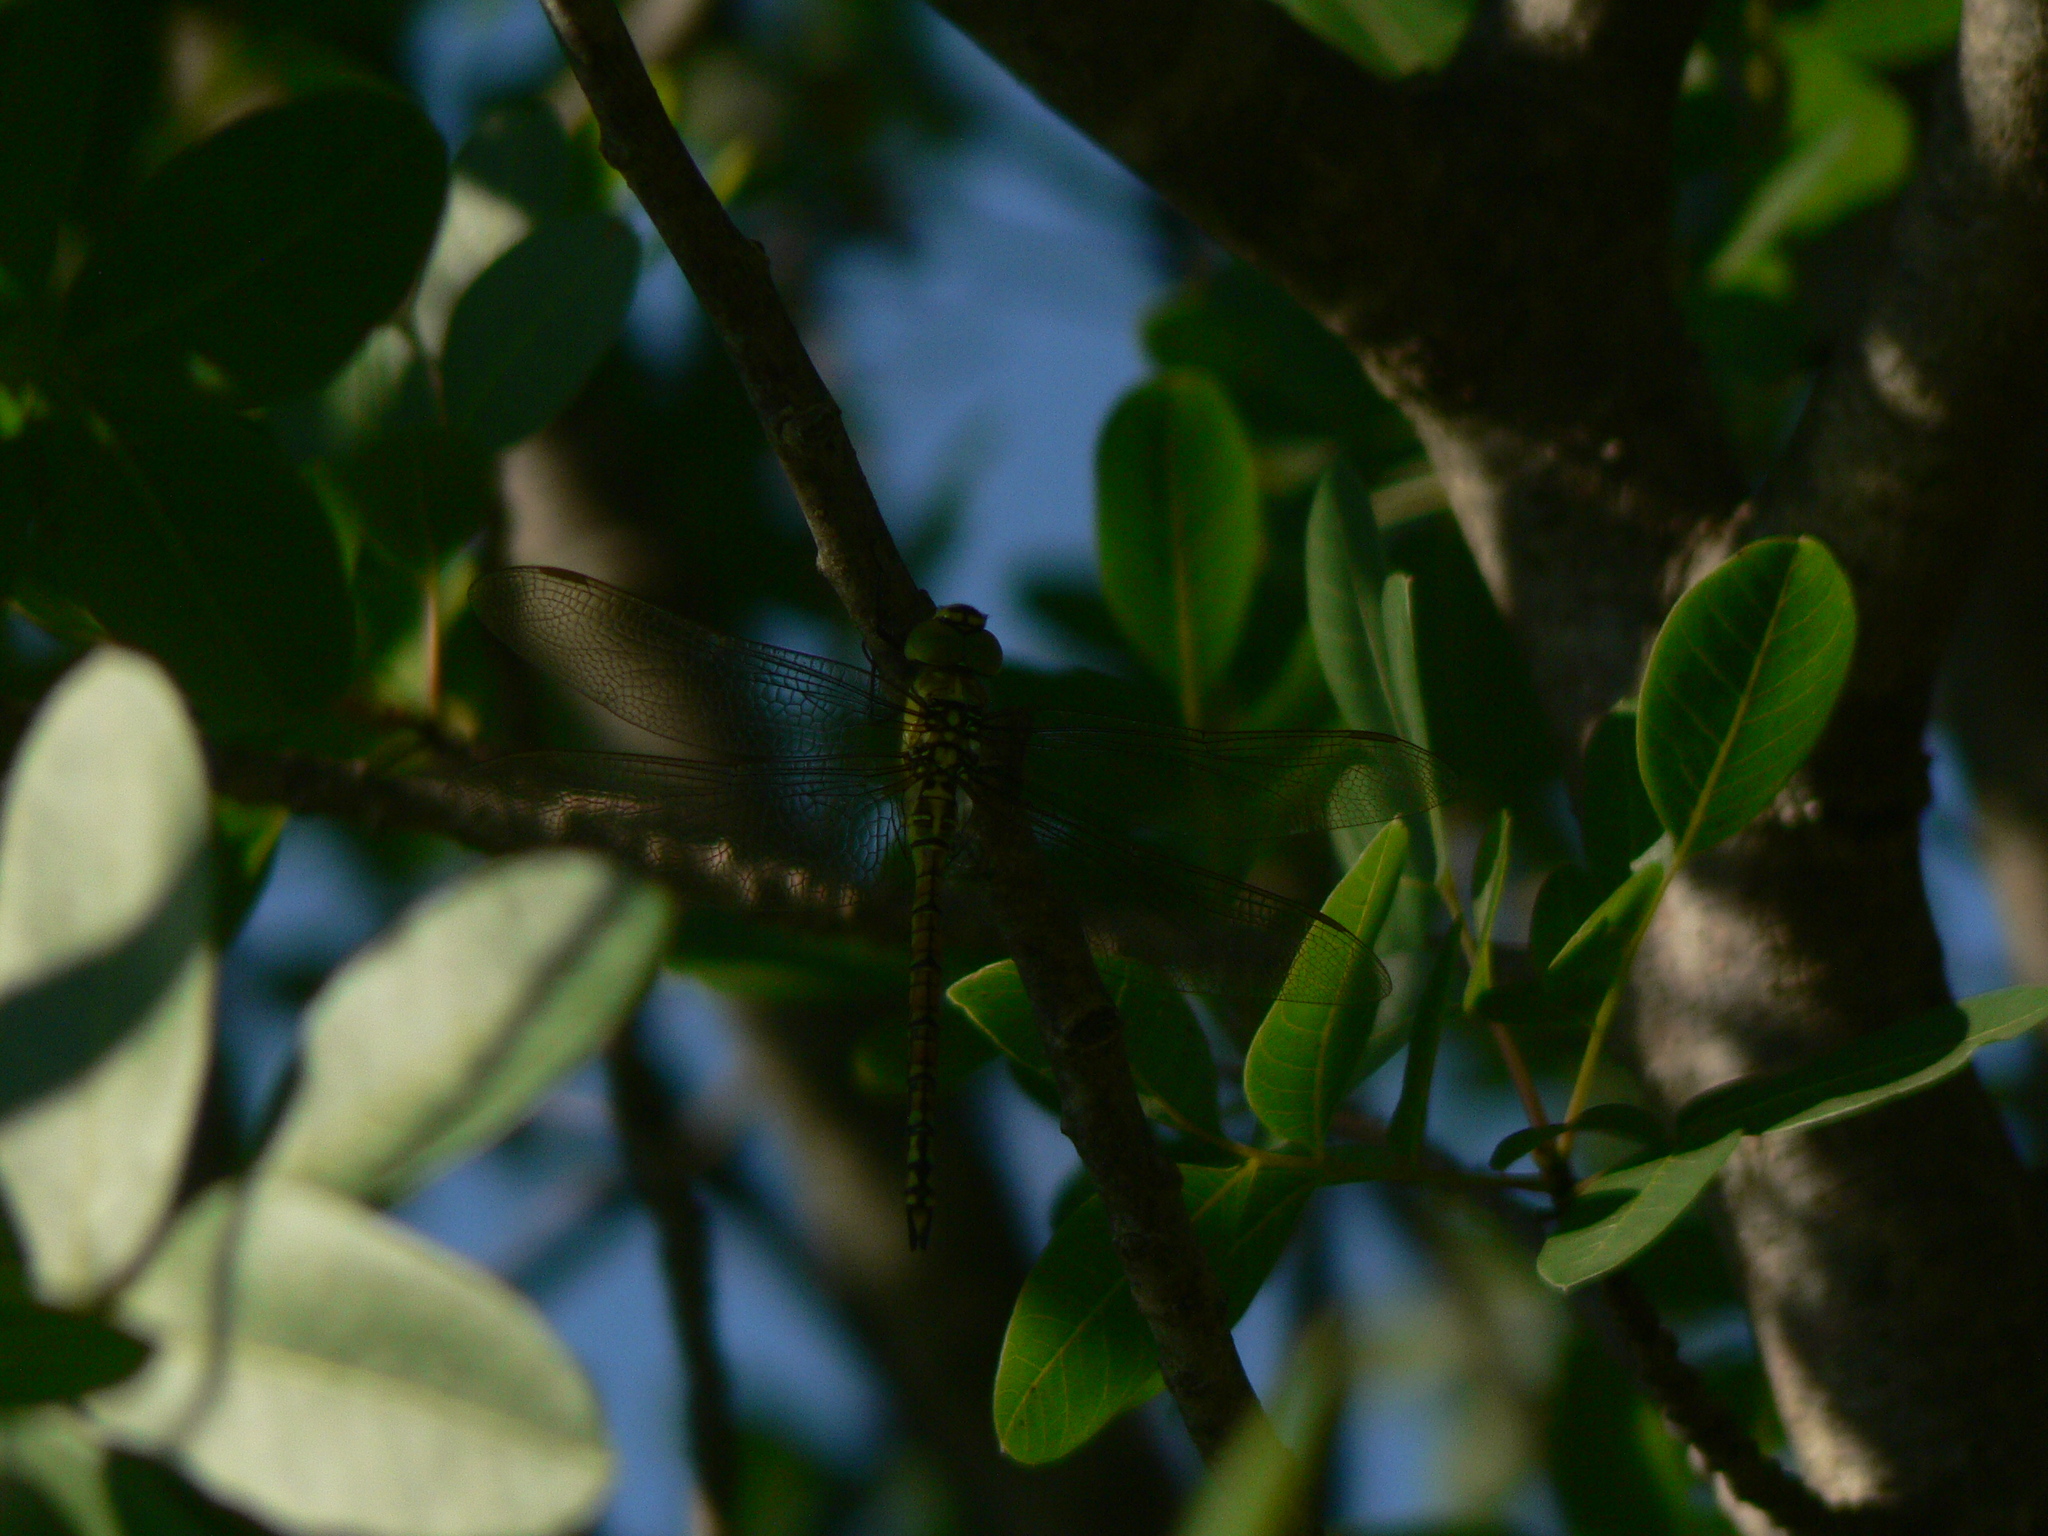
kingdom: Animalia
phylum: Arthropoda
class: Insecta
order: Odonata
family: Aeshnidae
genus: Aeshna
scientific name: Aeshna affinis
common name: Southern migrant hawker
